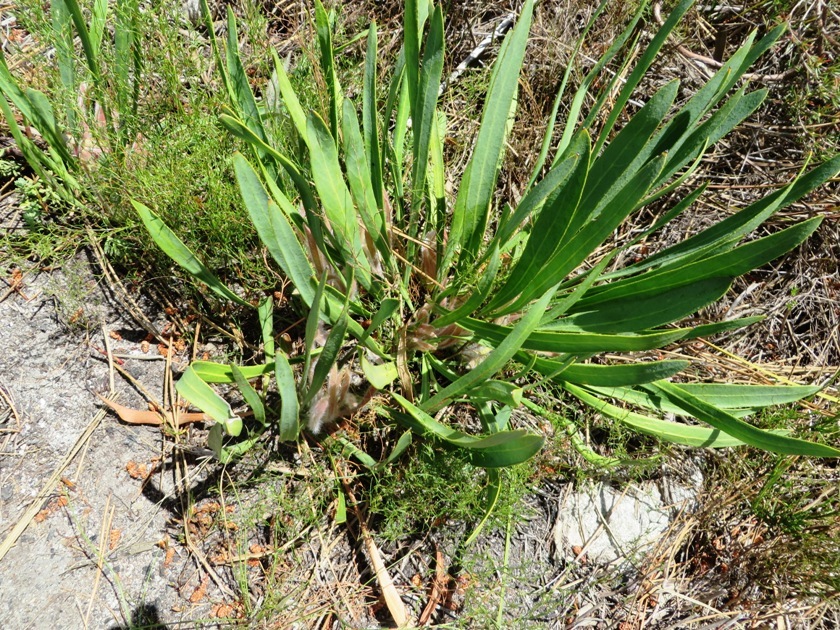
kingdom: Plantae
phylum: Tracheophyta
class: Magnoliopsida
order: Proteales
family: Proteaceae
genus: Protea
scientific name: Protea scabra
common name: Sandpaper-leaf sugarbush
